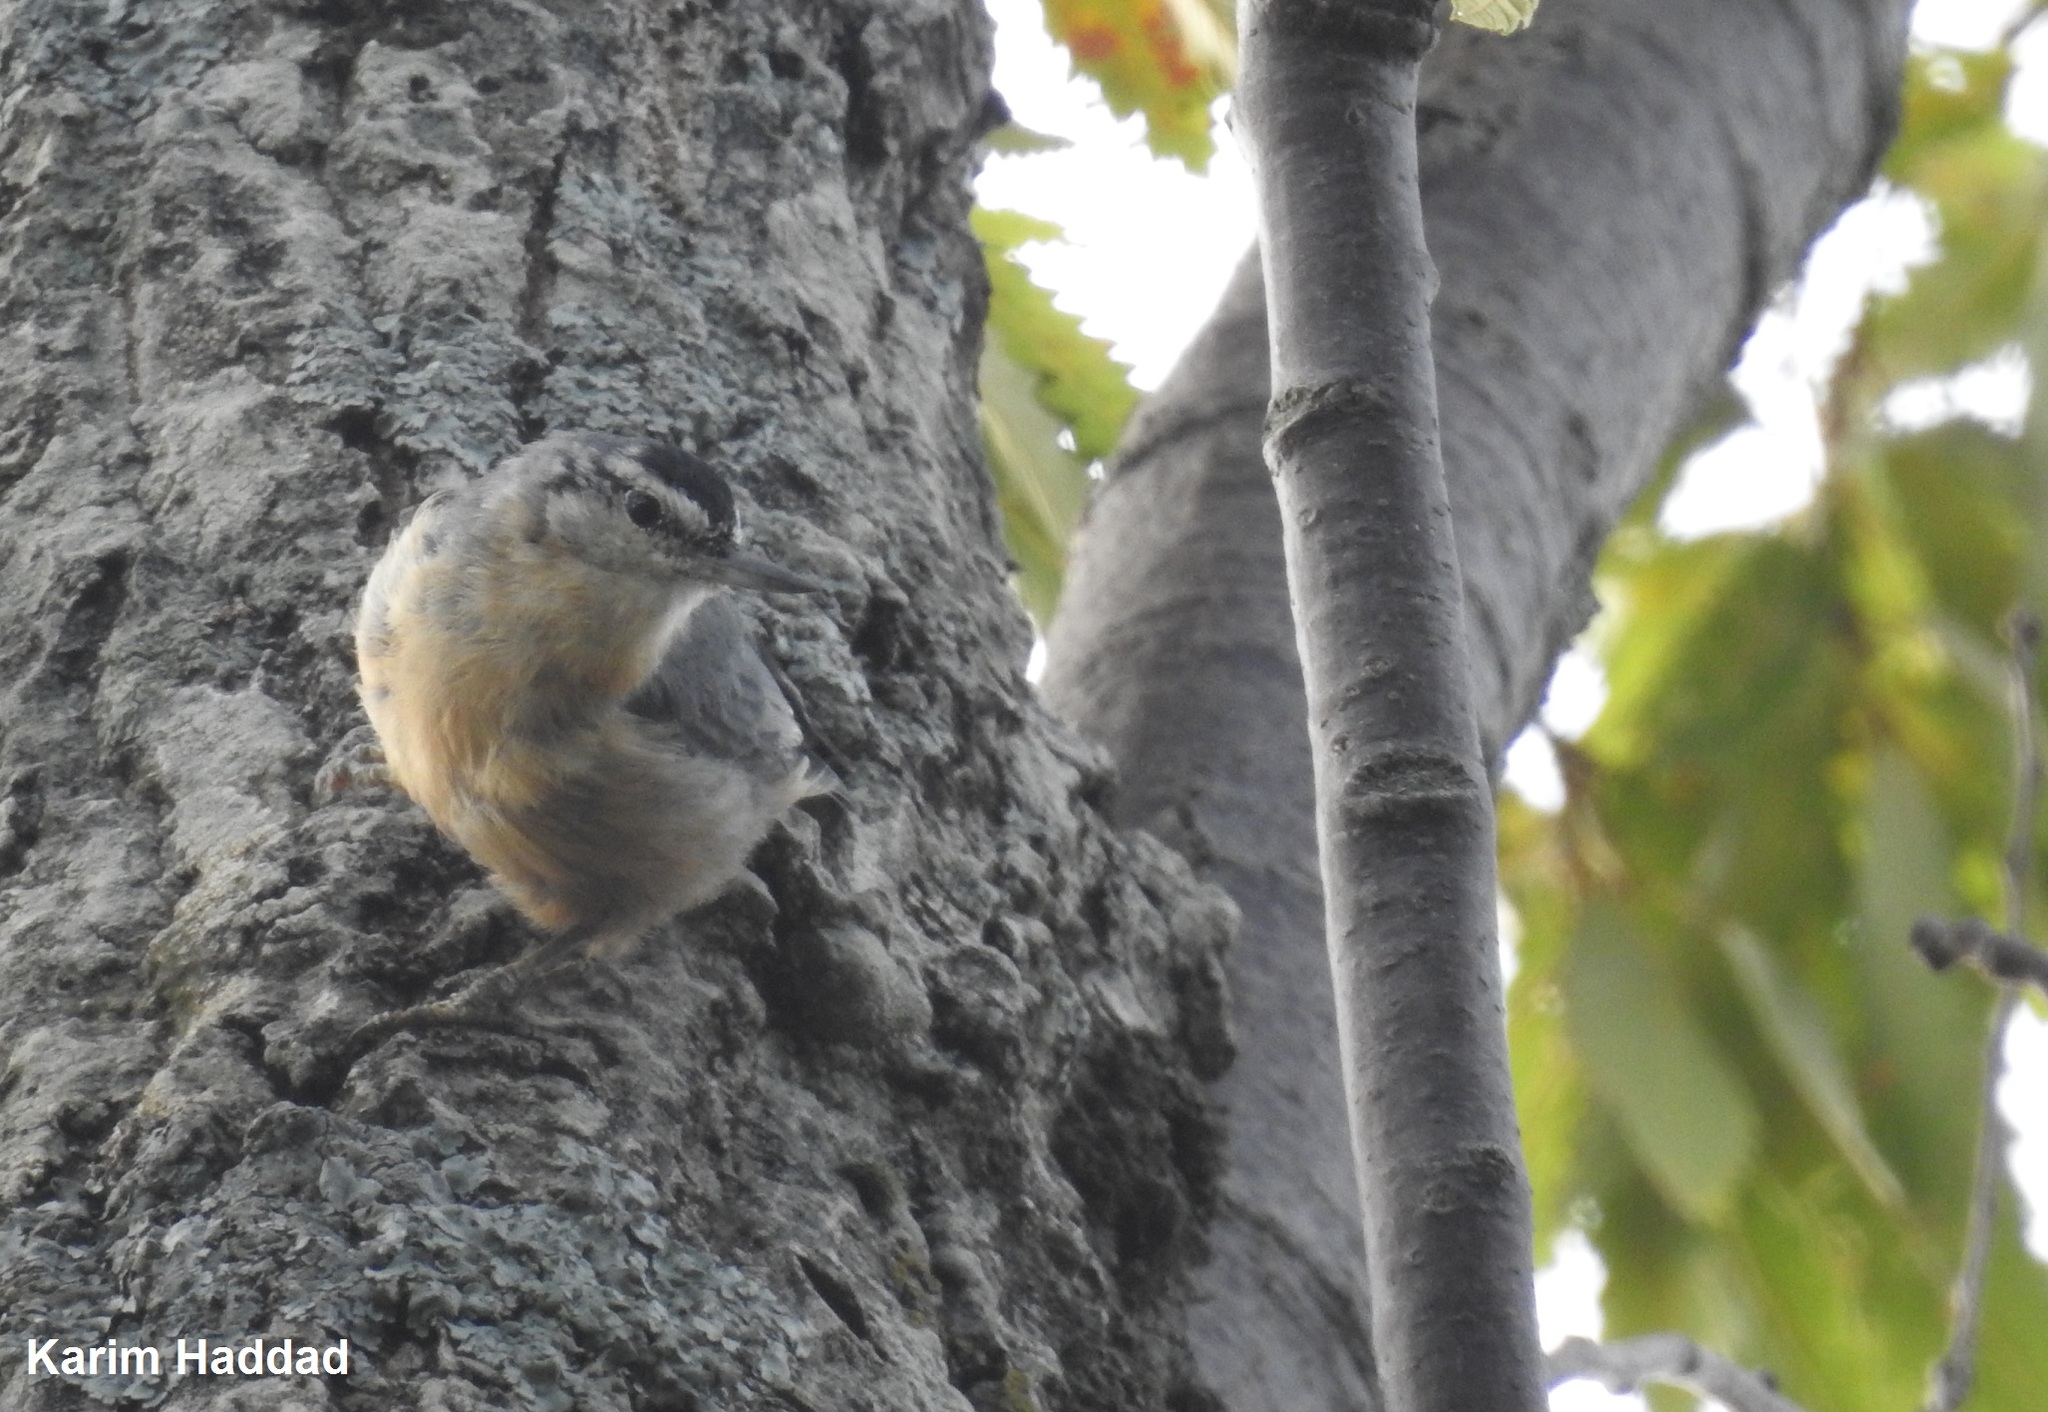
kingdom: Animalia
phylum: Chordata
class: Aves
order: Passeriformes
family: Sittidae
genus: Sitta
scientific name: Sitta ledanti
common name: Algerian nuthatch
